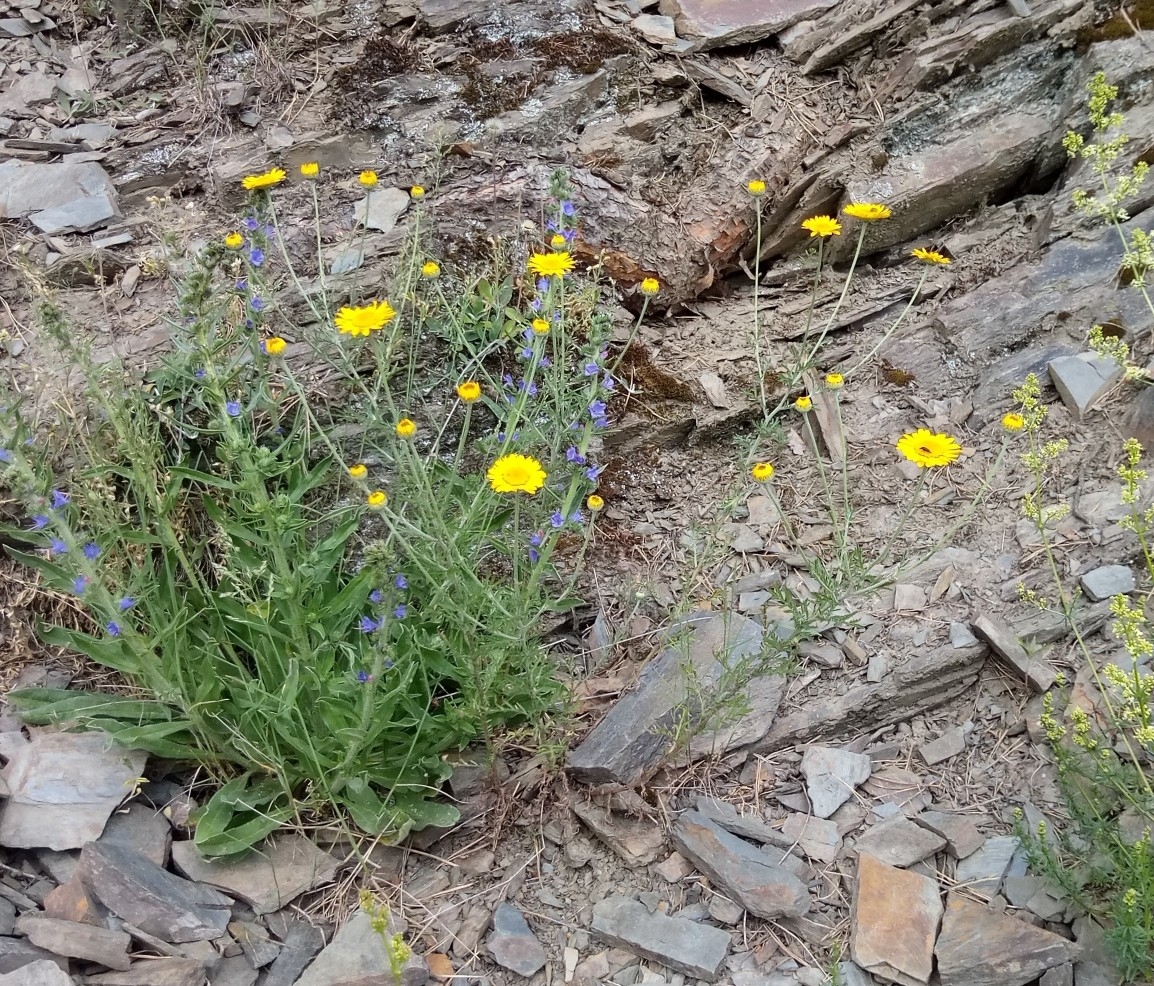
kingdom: Plantae
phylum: Tracheophyta
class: Magnoliopsida
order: Asterales
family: Asteraceae
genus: Cota
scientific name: Cota tinctoria
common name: Golden chamomile
